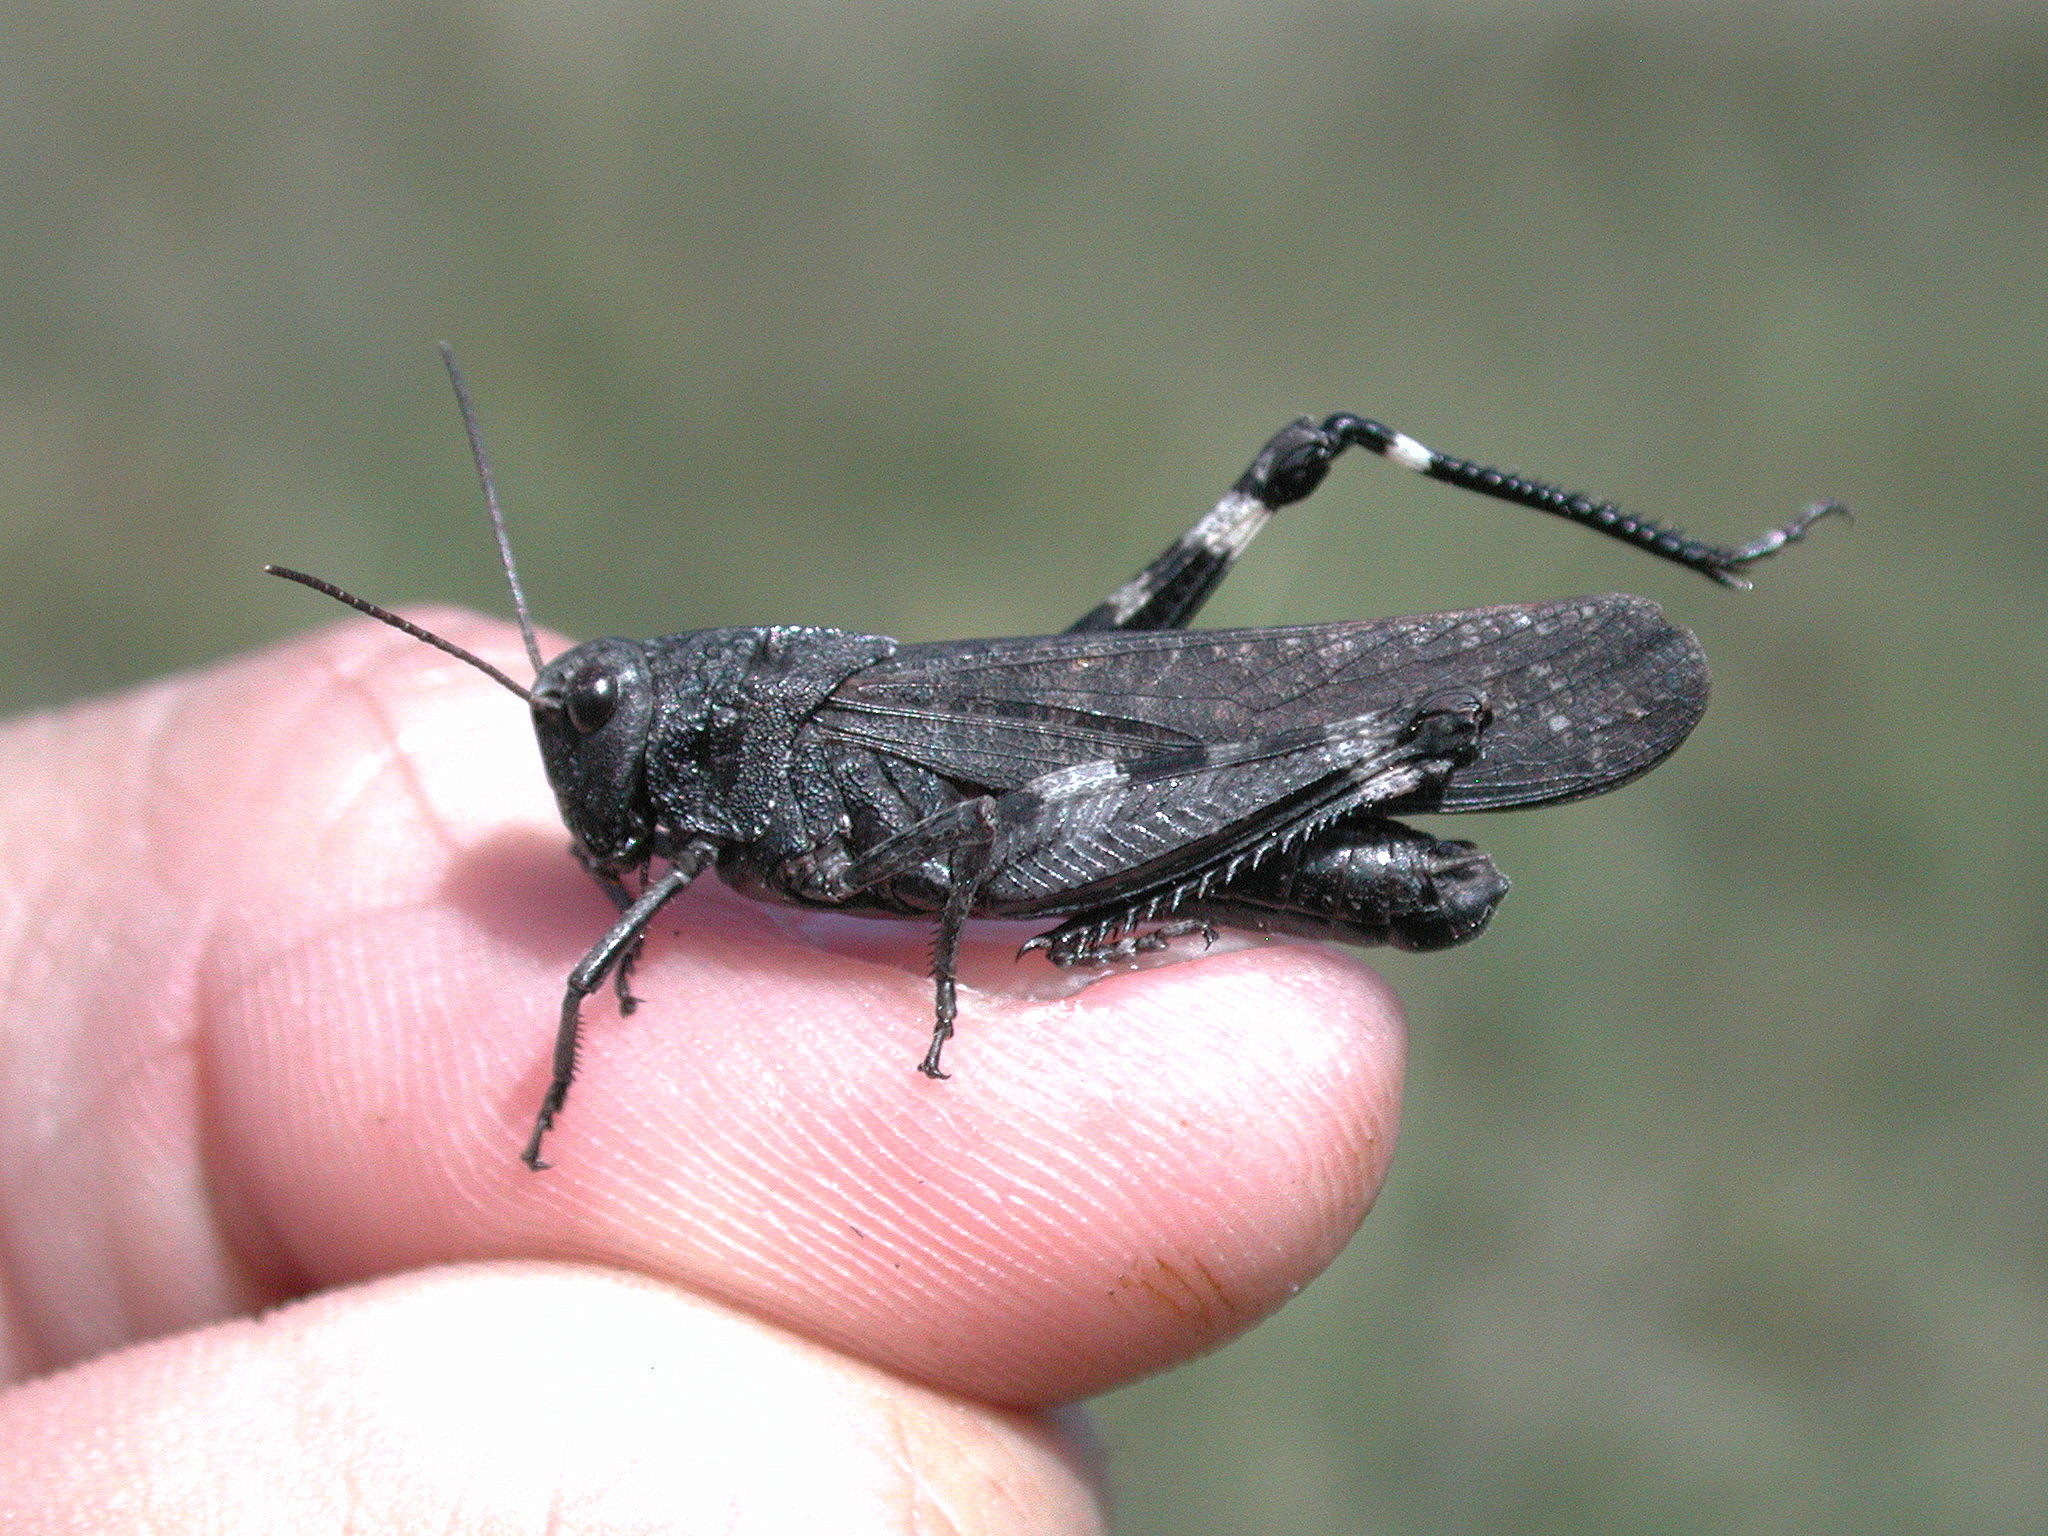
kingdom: Animalia
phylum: Arthropoda
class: Insecta
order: Orthoptera
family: Acrididae
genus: Psophus
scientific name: Psophus stridulus
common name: Rattle grasshopper
